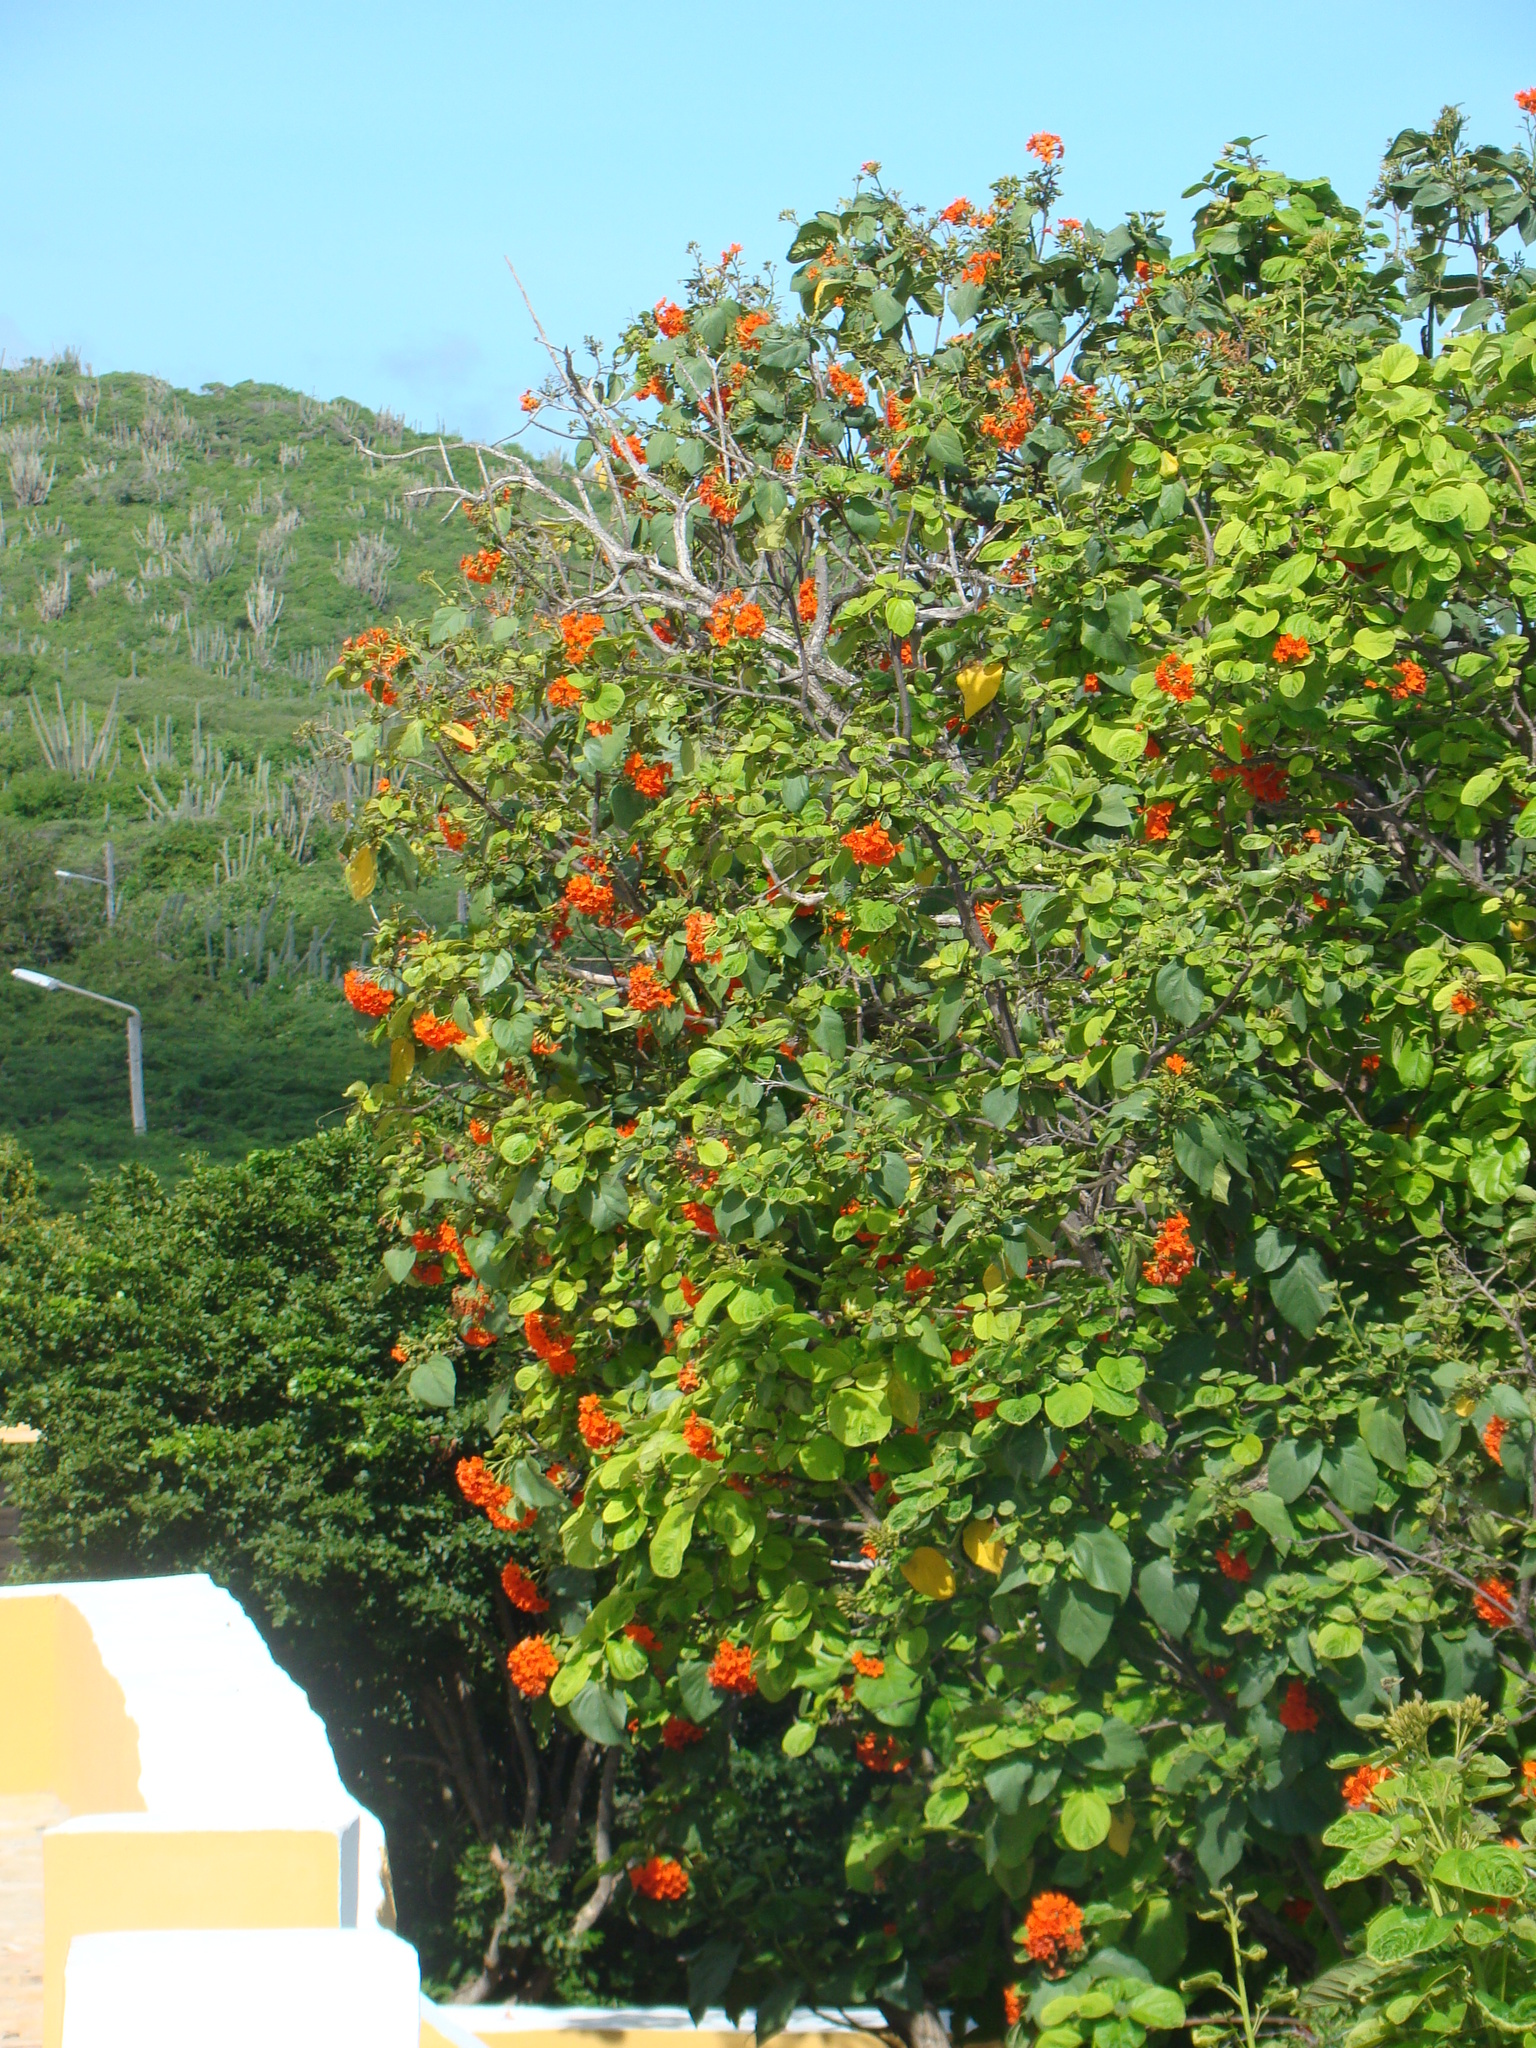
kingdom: Plantae
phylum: Tracheophyta
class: Magnoliopsida
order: Boraginales
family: Cordiaceae
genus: Cordia
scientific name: Cordia sebestena
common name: Largeleaf geigertree
